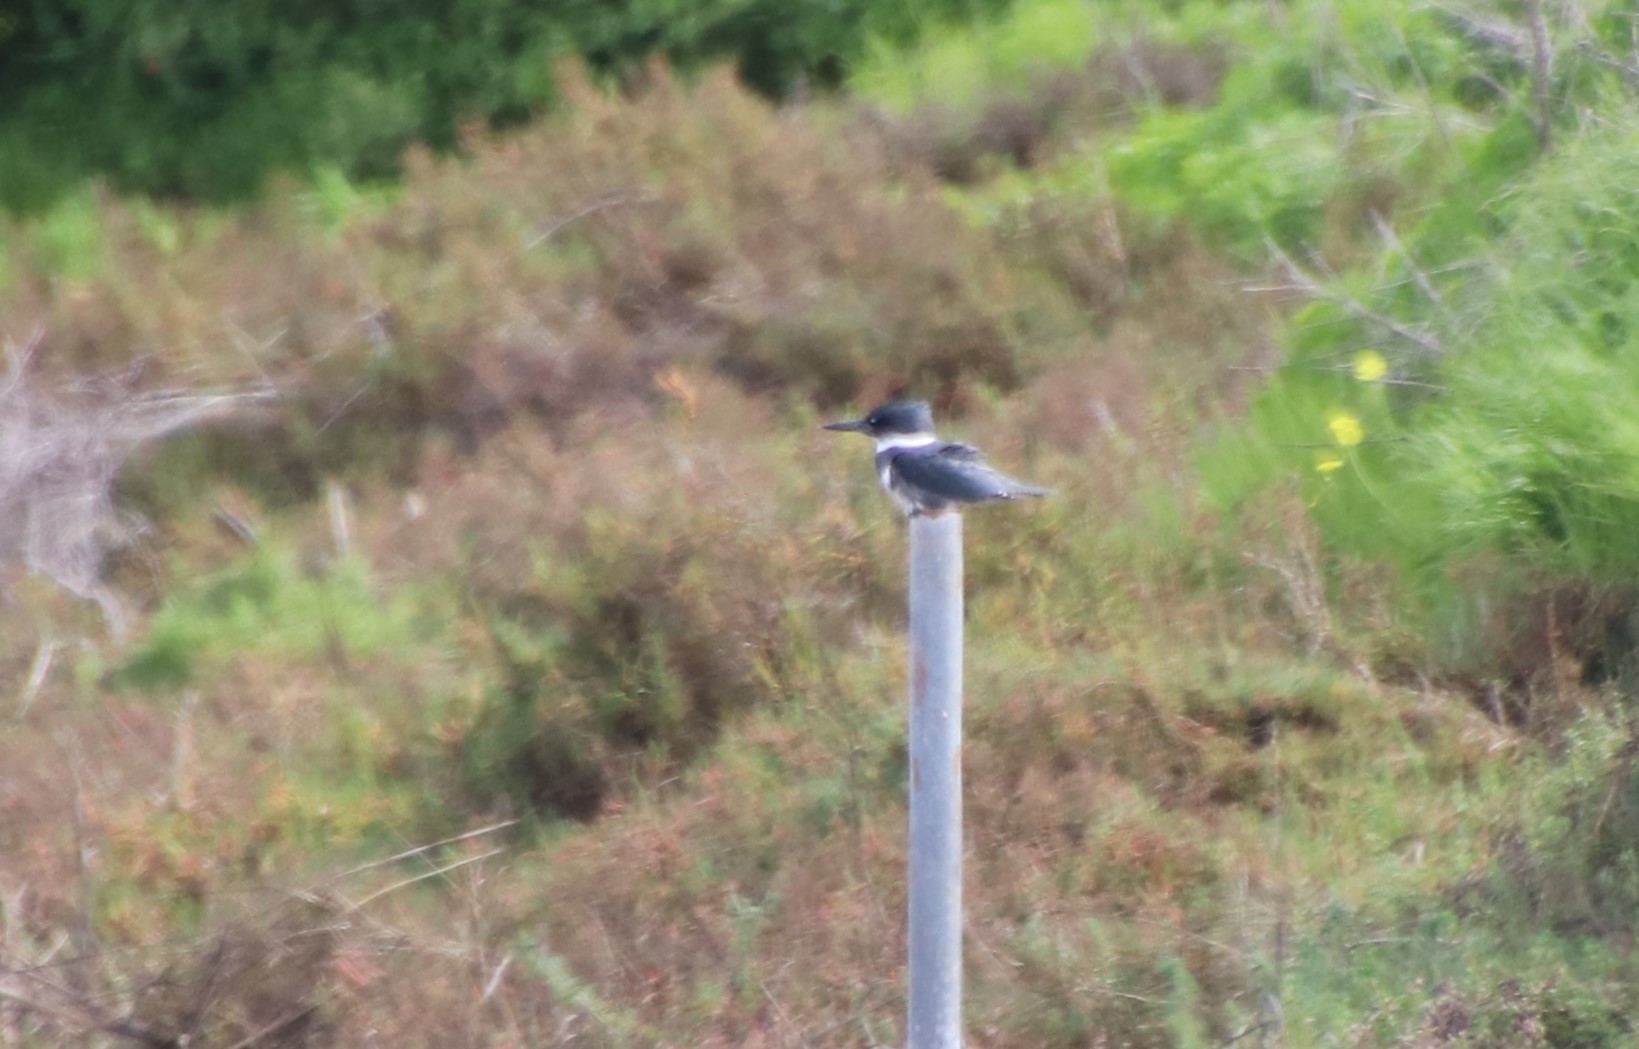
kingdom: Animalia
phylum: Chordata
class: Aves
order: Coraciiformes
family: Alcedinidae
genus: Megaceryle
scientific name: Megaceryle alcyon
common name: Belted kingfisher
